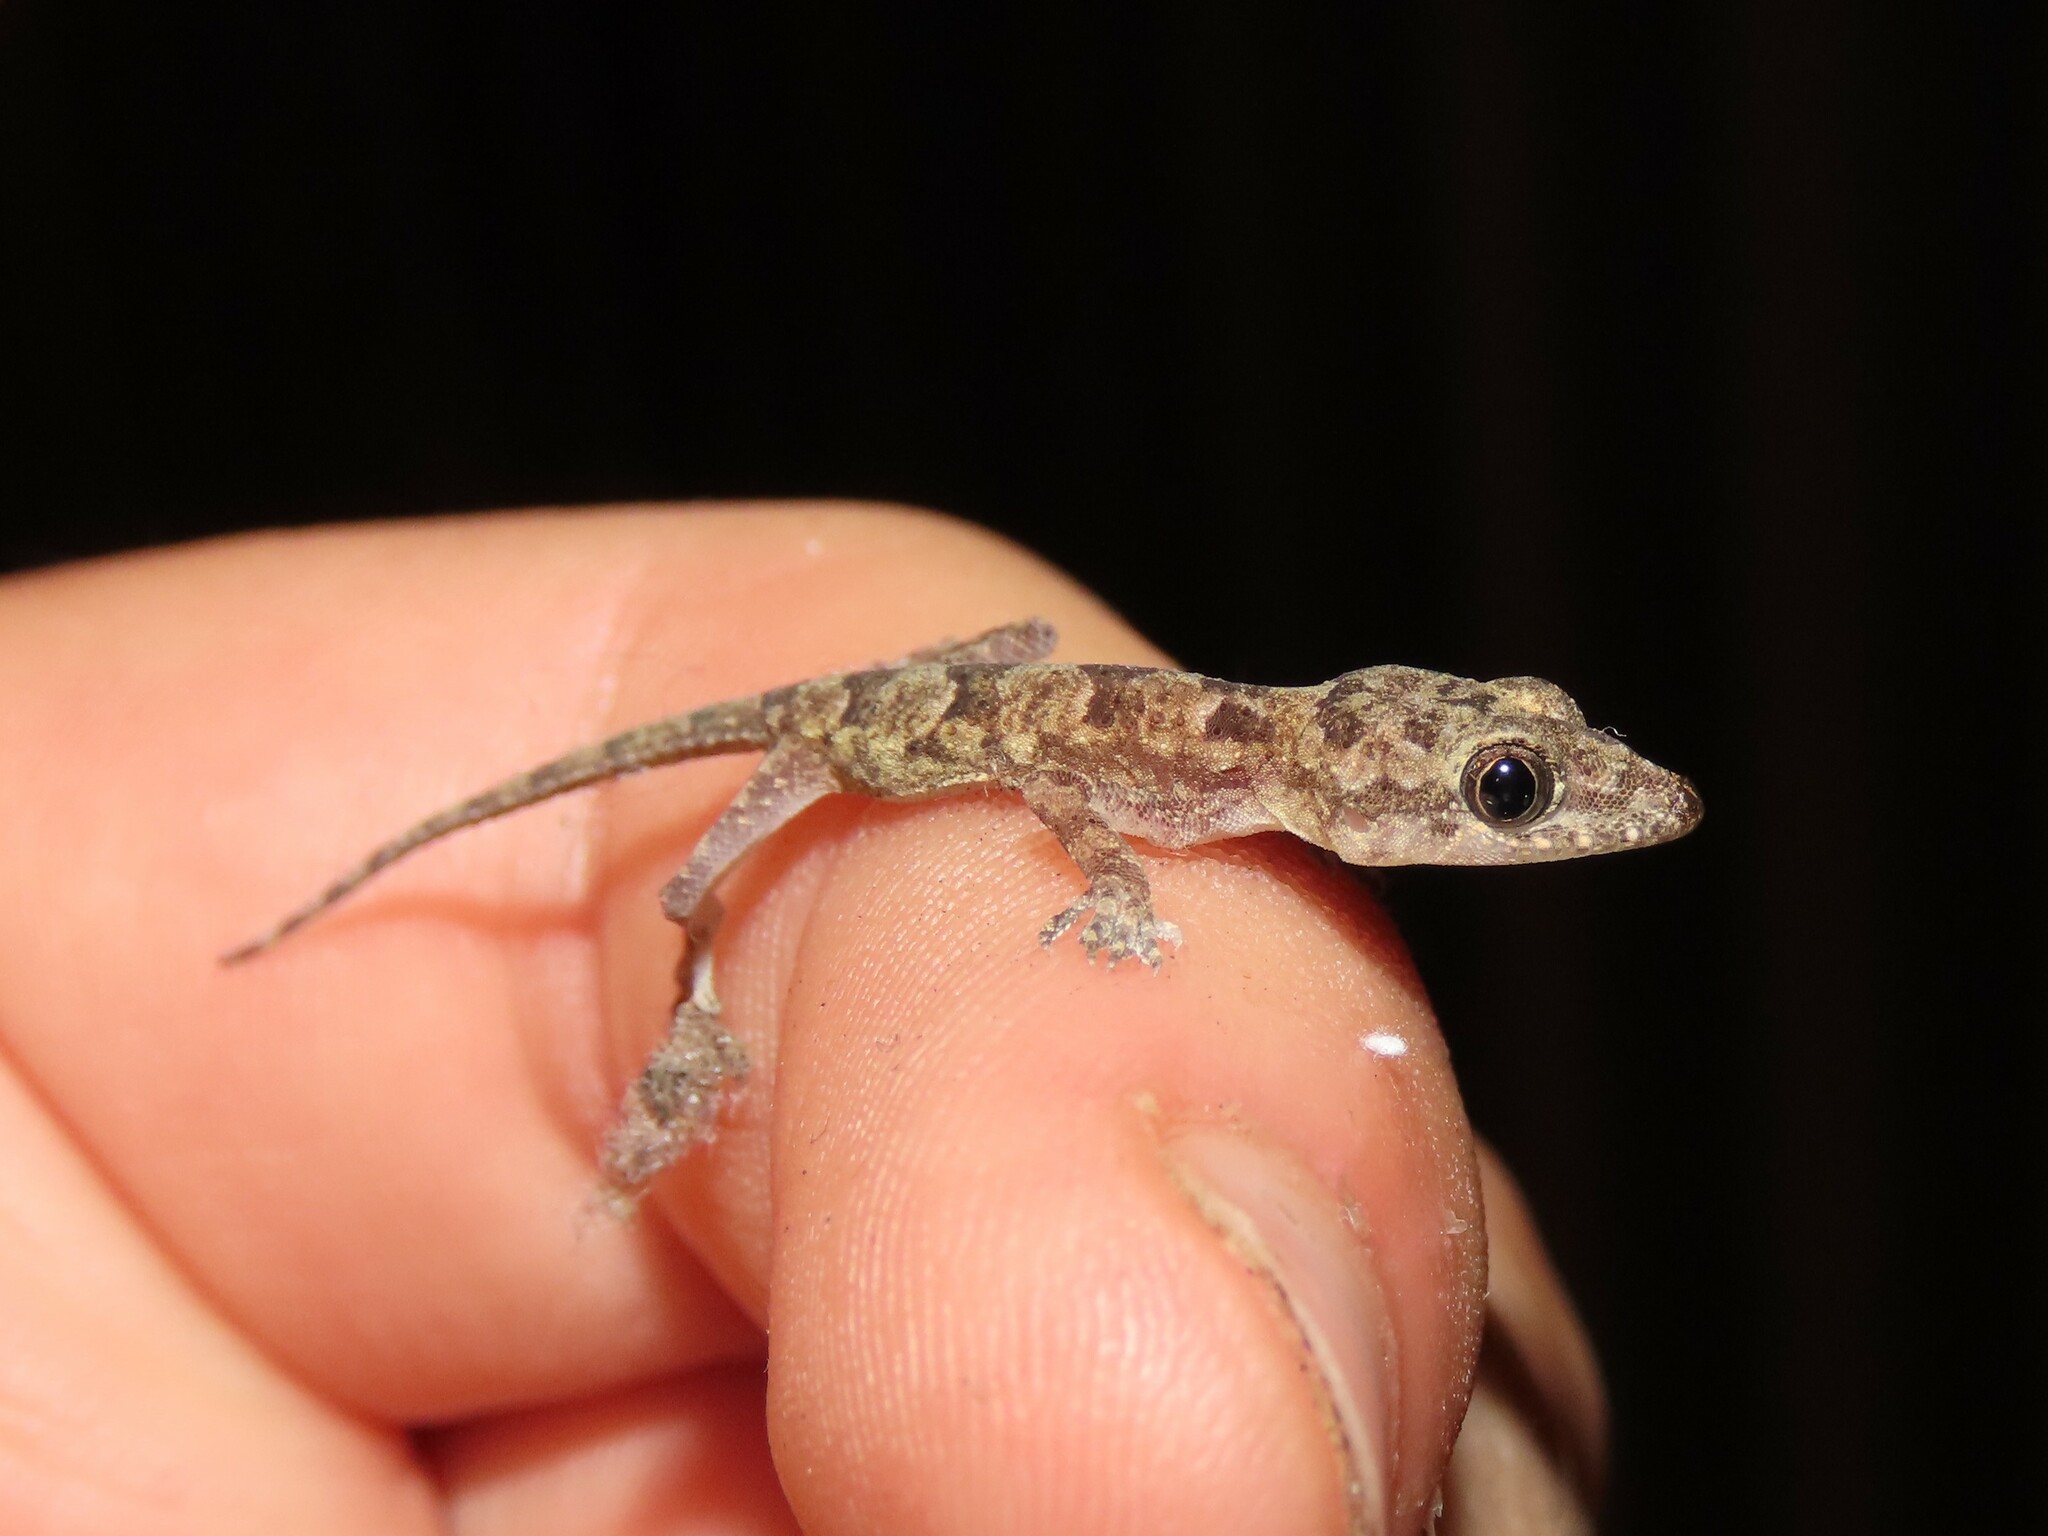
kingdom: Animalia
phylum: Chordata
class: Squamata
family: Gekkonidae
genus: Hemidactylus
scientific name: Hemidactylus mabouia
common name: House gecko
